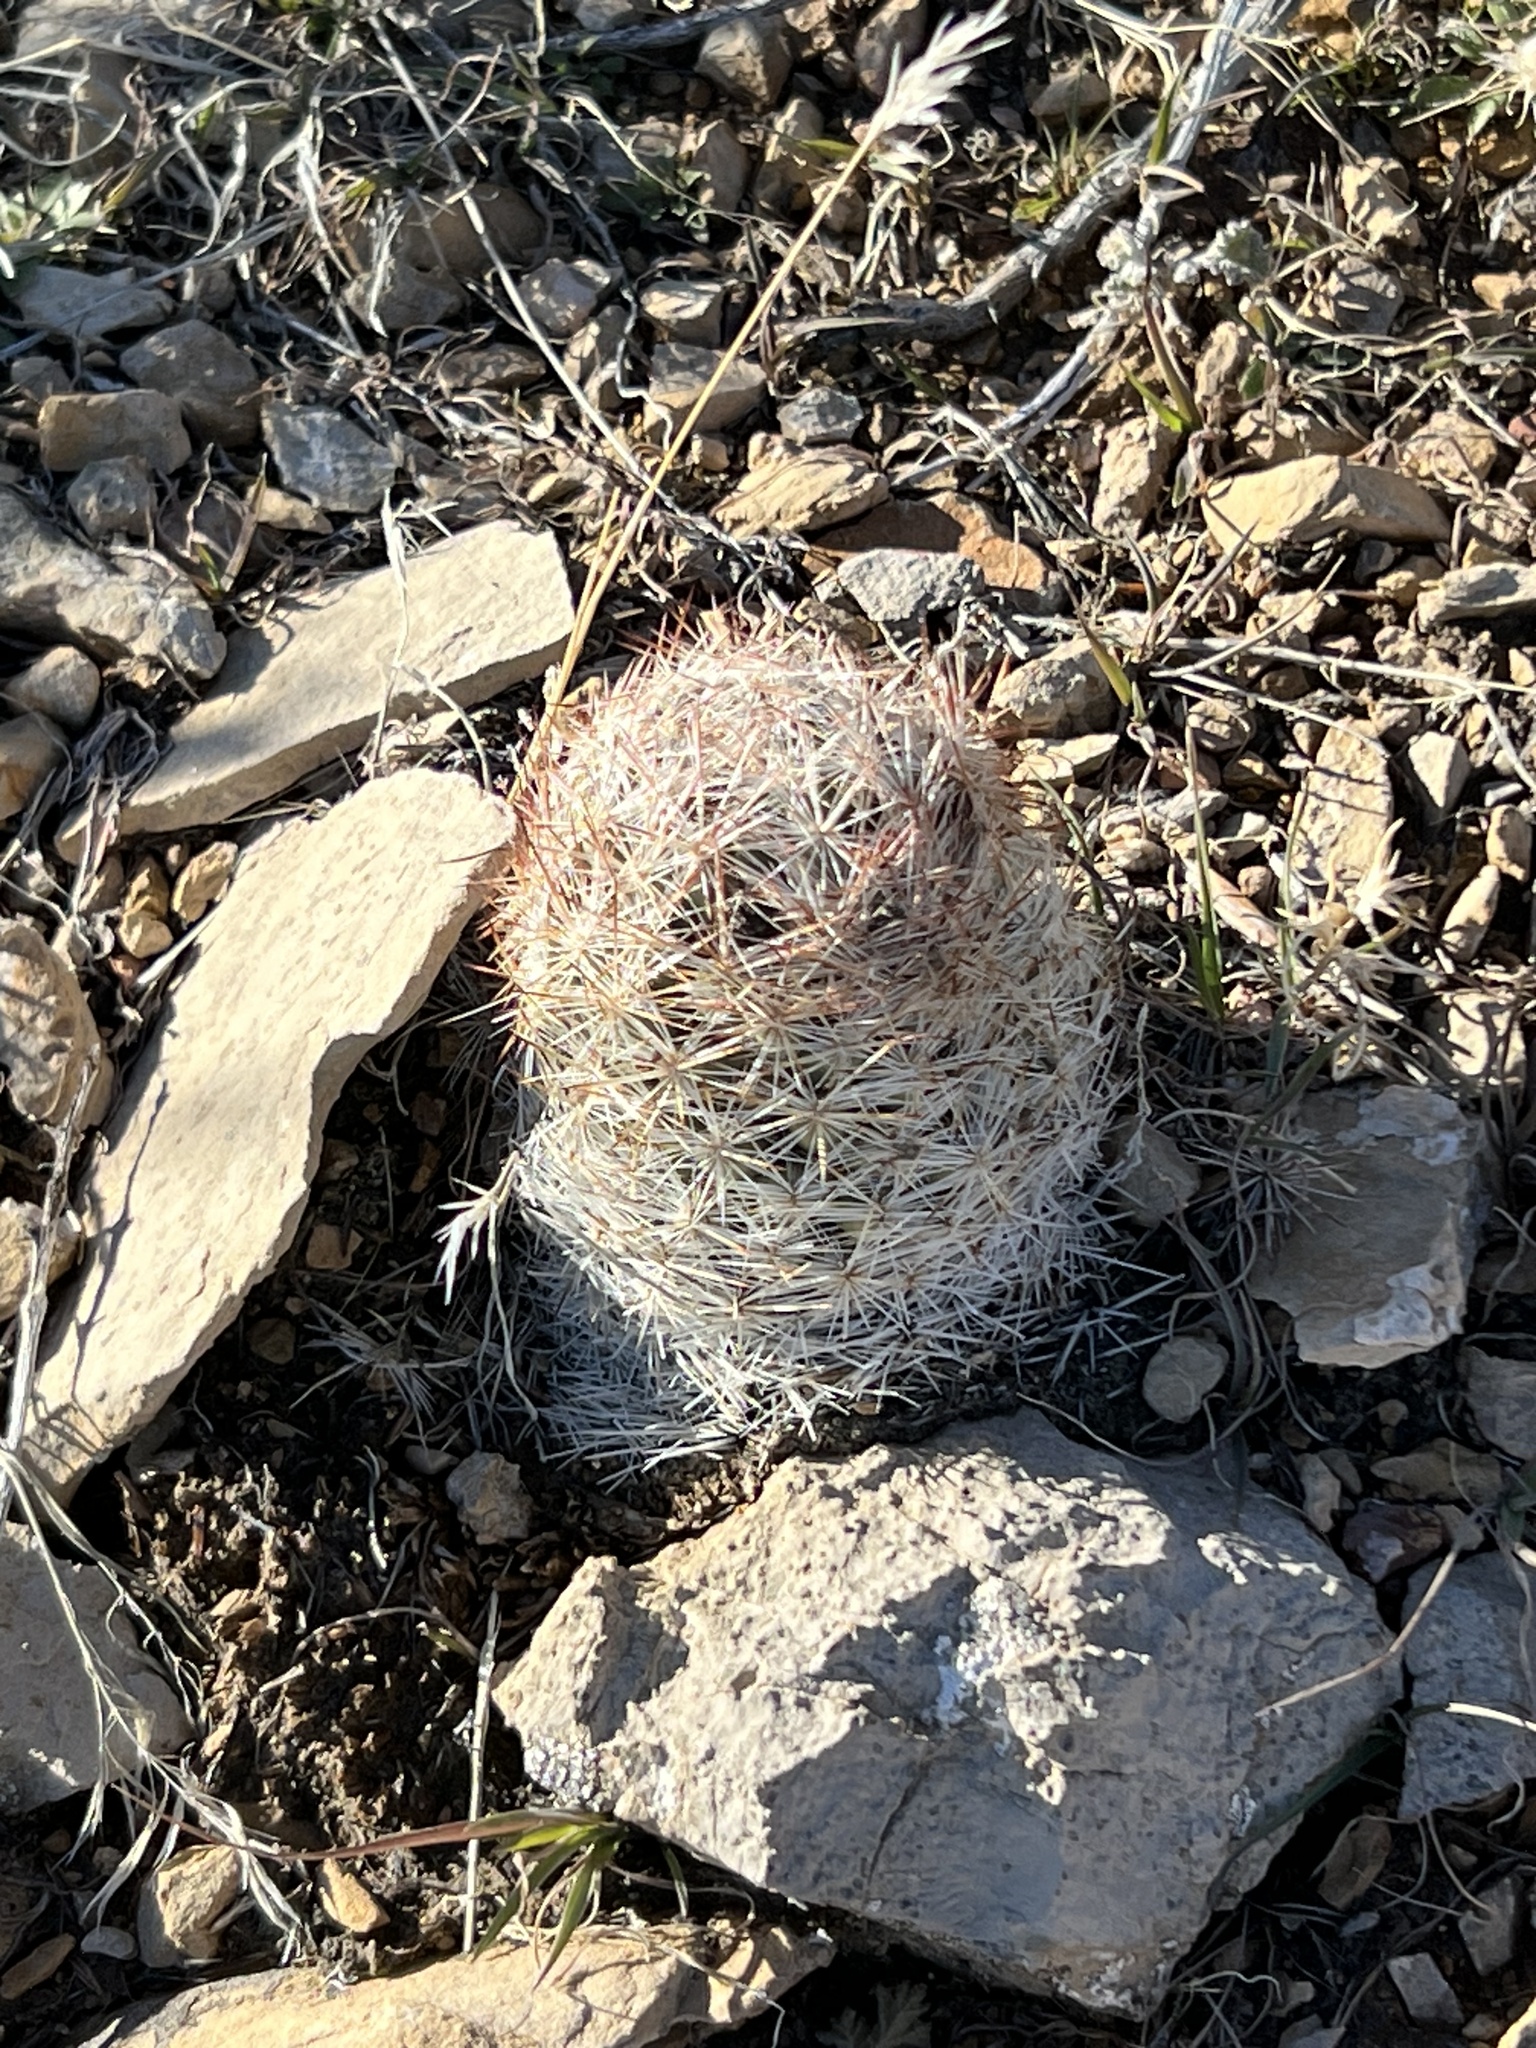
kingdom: Plantae
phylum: Tracheophyta
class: Magnoliopsida
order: Caryophyllales
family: Cactaceae
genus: Pelecyphora
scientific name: Pelecyphora dasyacantha
